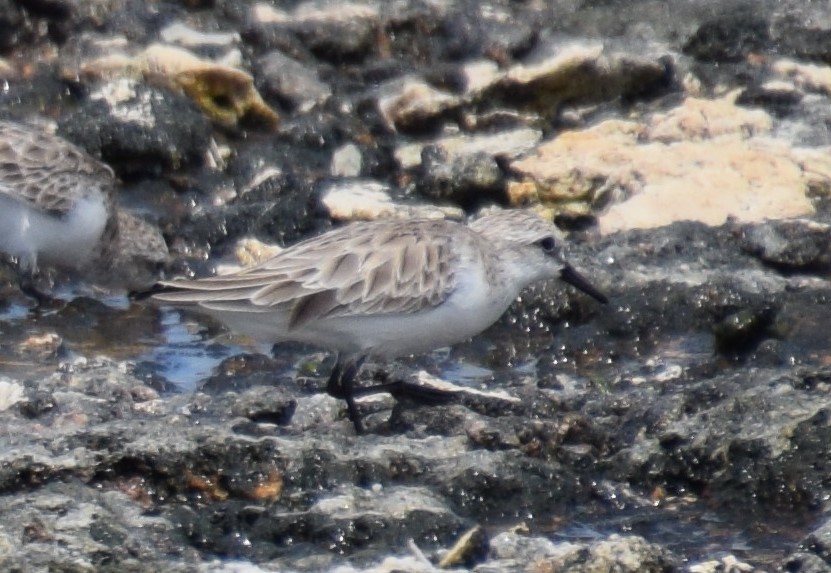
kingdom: Animalia
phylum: Chordata
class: Aves
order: Charadriiformes
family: Scolopacidae
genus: Calidris
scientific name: Calidris ruficollis
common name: Red-necked stint
